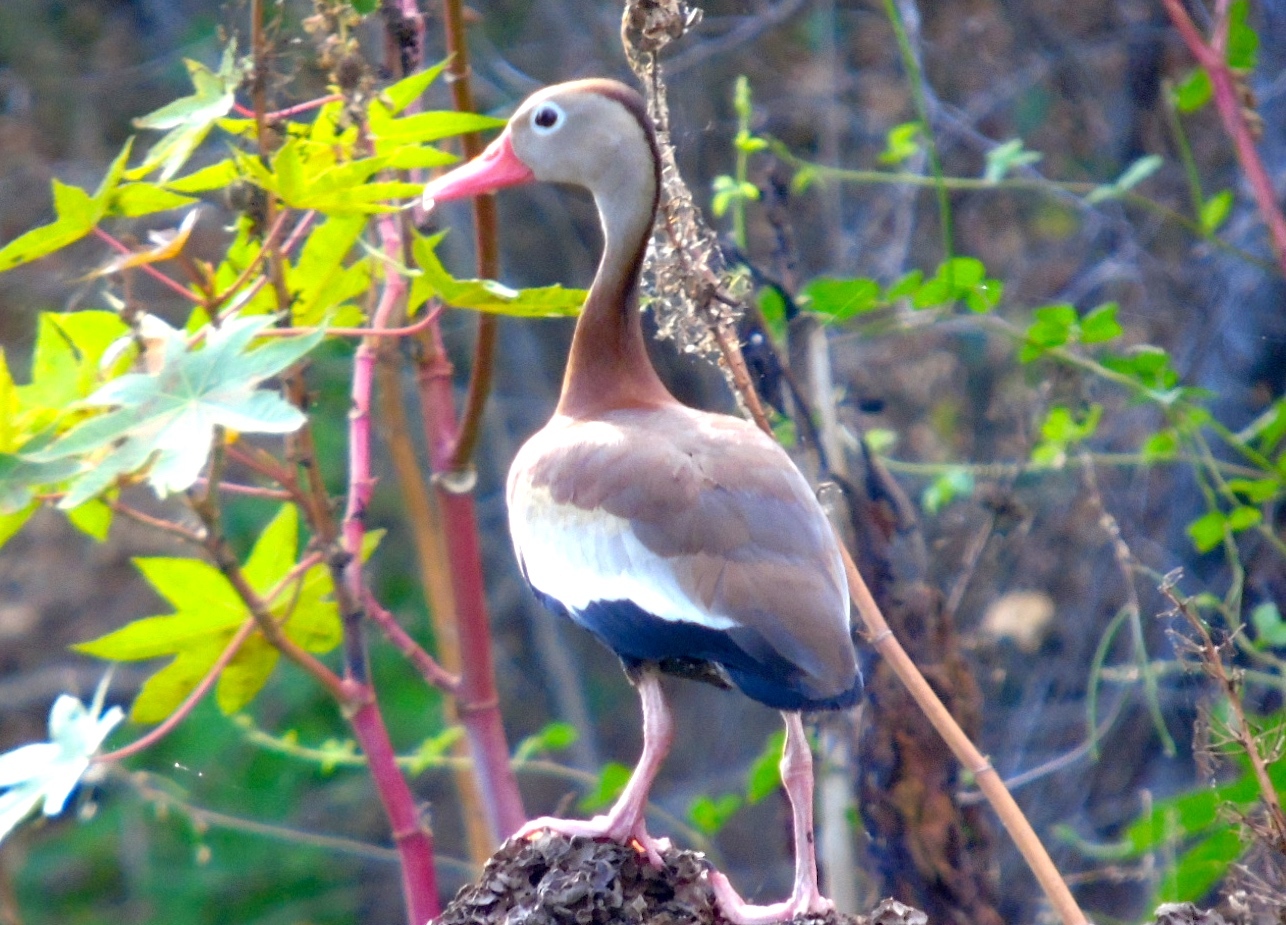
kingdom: Animalia
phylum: Chordata
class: Aves
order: Anseriformes
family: Anatidae
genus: Dendrocygna
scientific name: Dendrocygna autumnalis
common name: Black-bellied whistling duck
